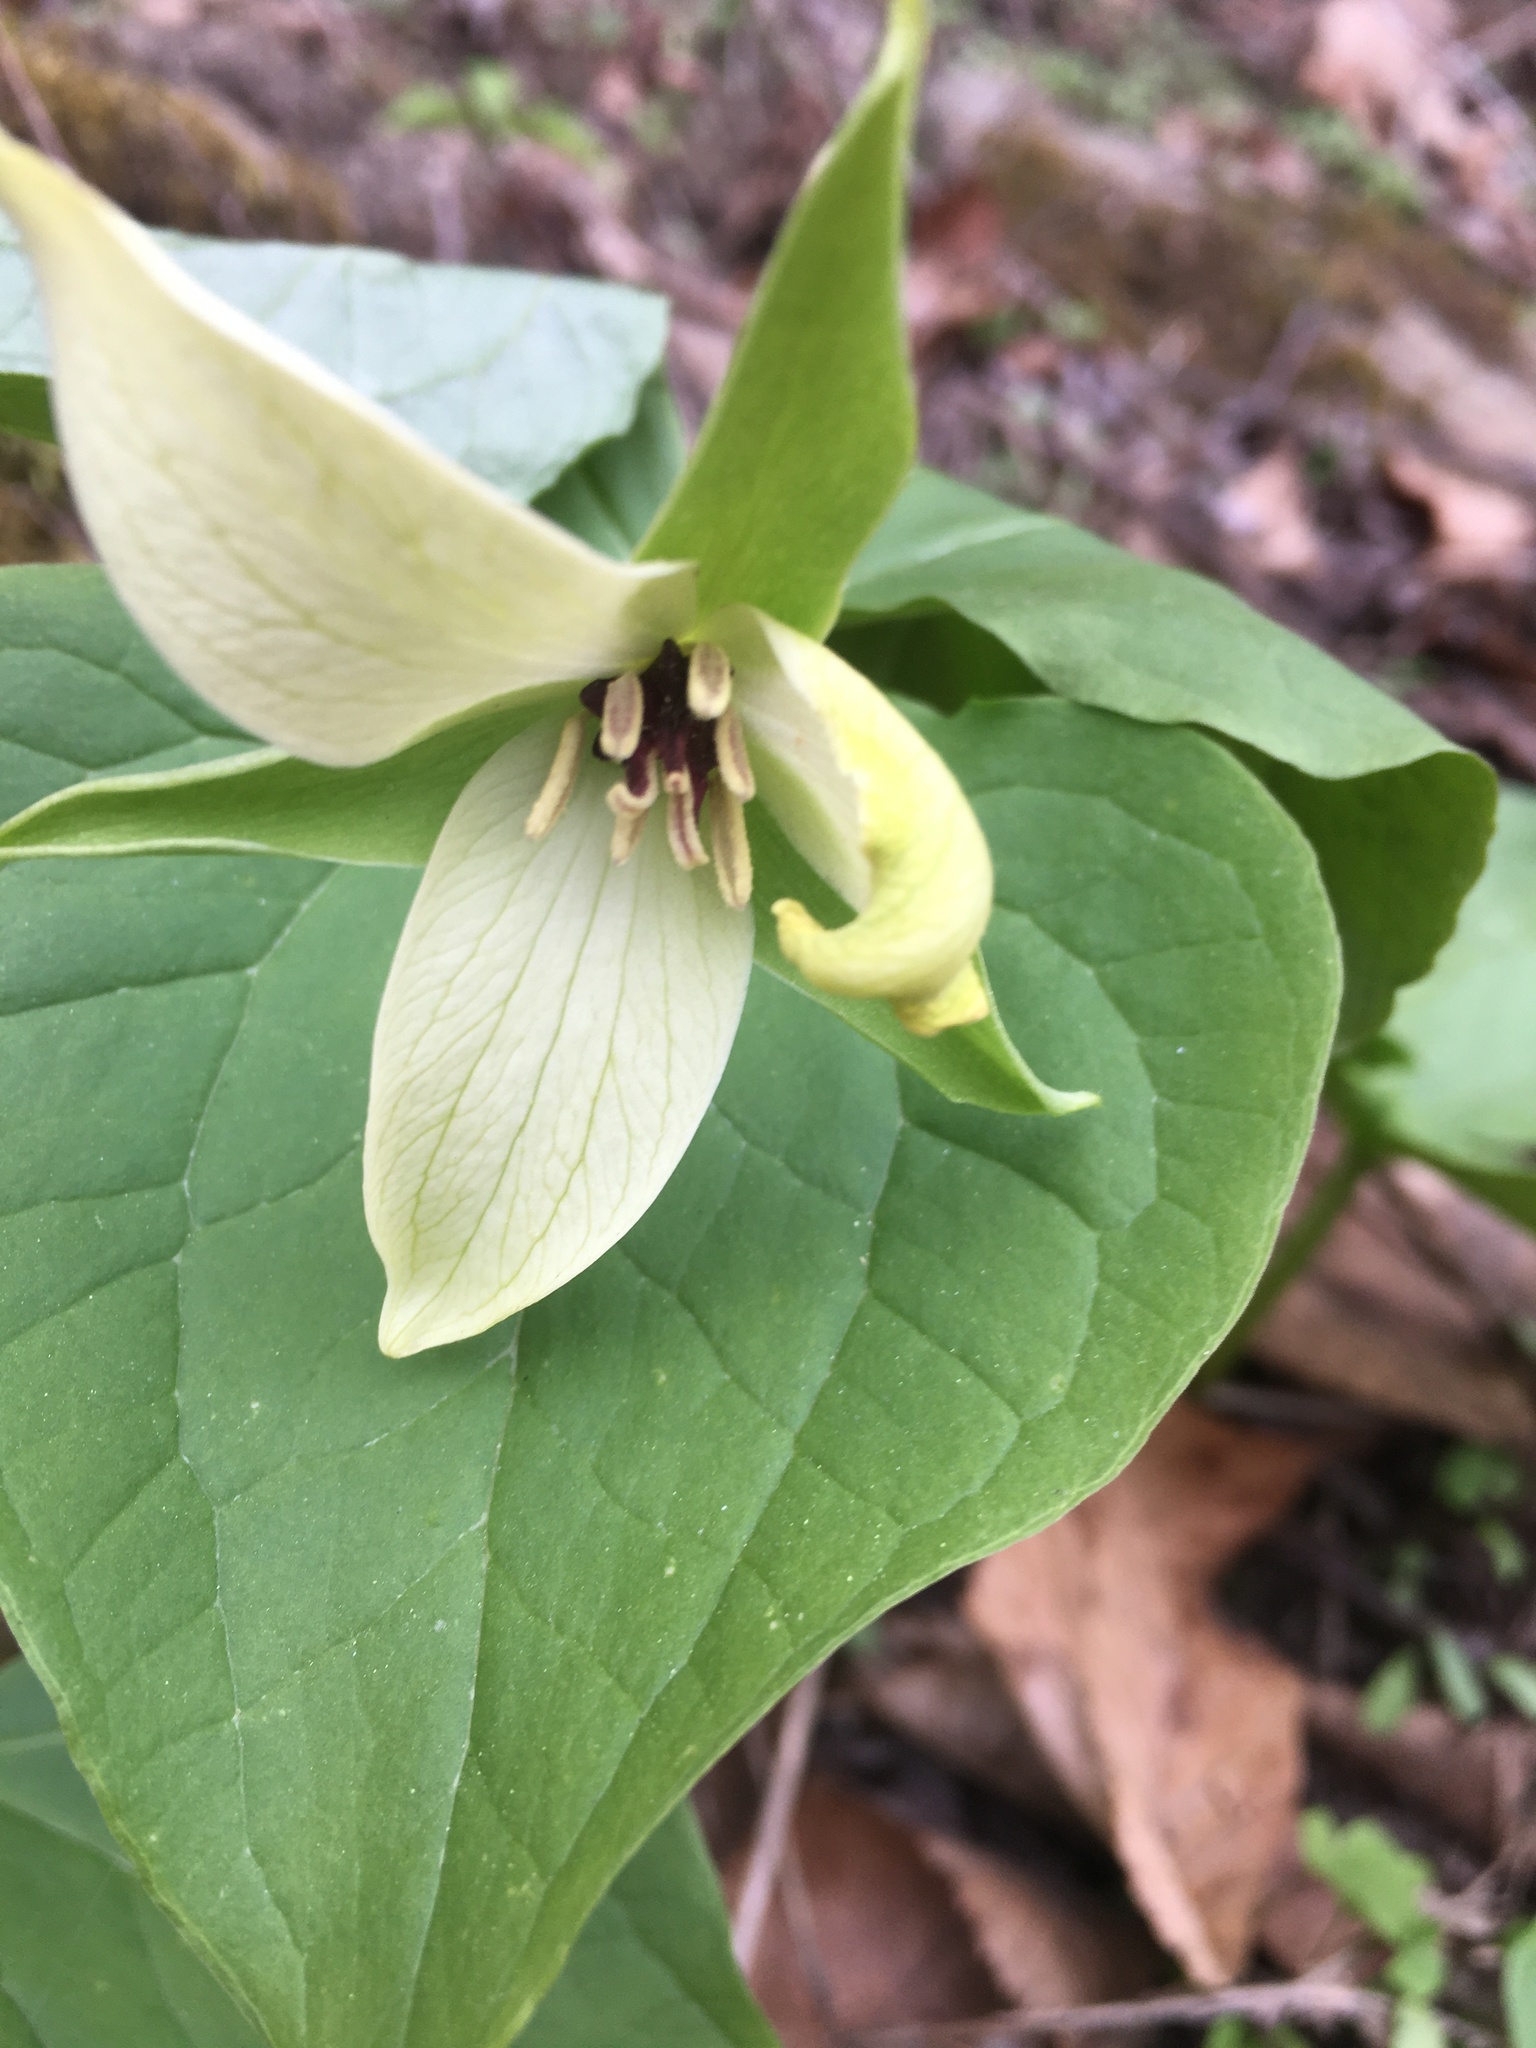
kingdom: Plantae
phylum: Tracheophyta
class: Liliopsida
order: Liliales
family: Melanthiaceae
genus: Trillium
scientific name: Trillium erectum
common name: Purple trillium
